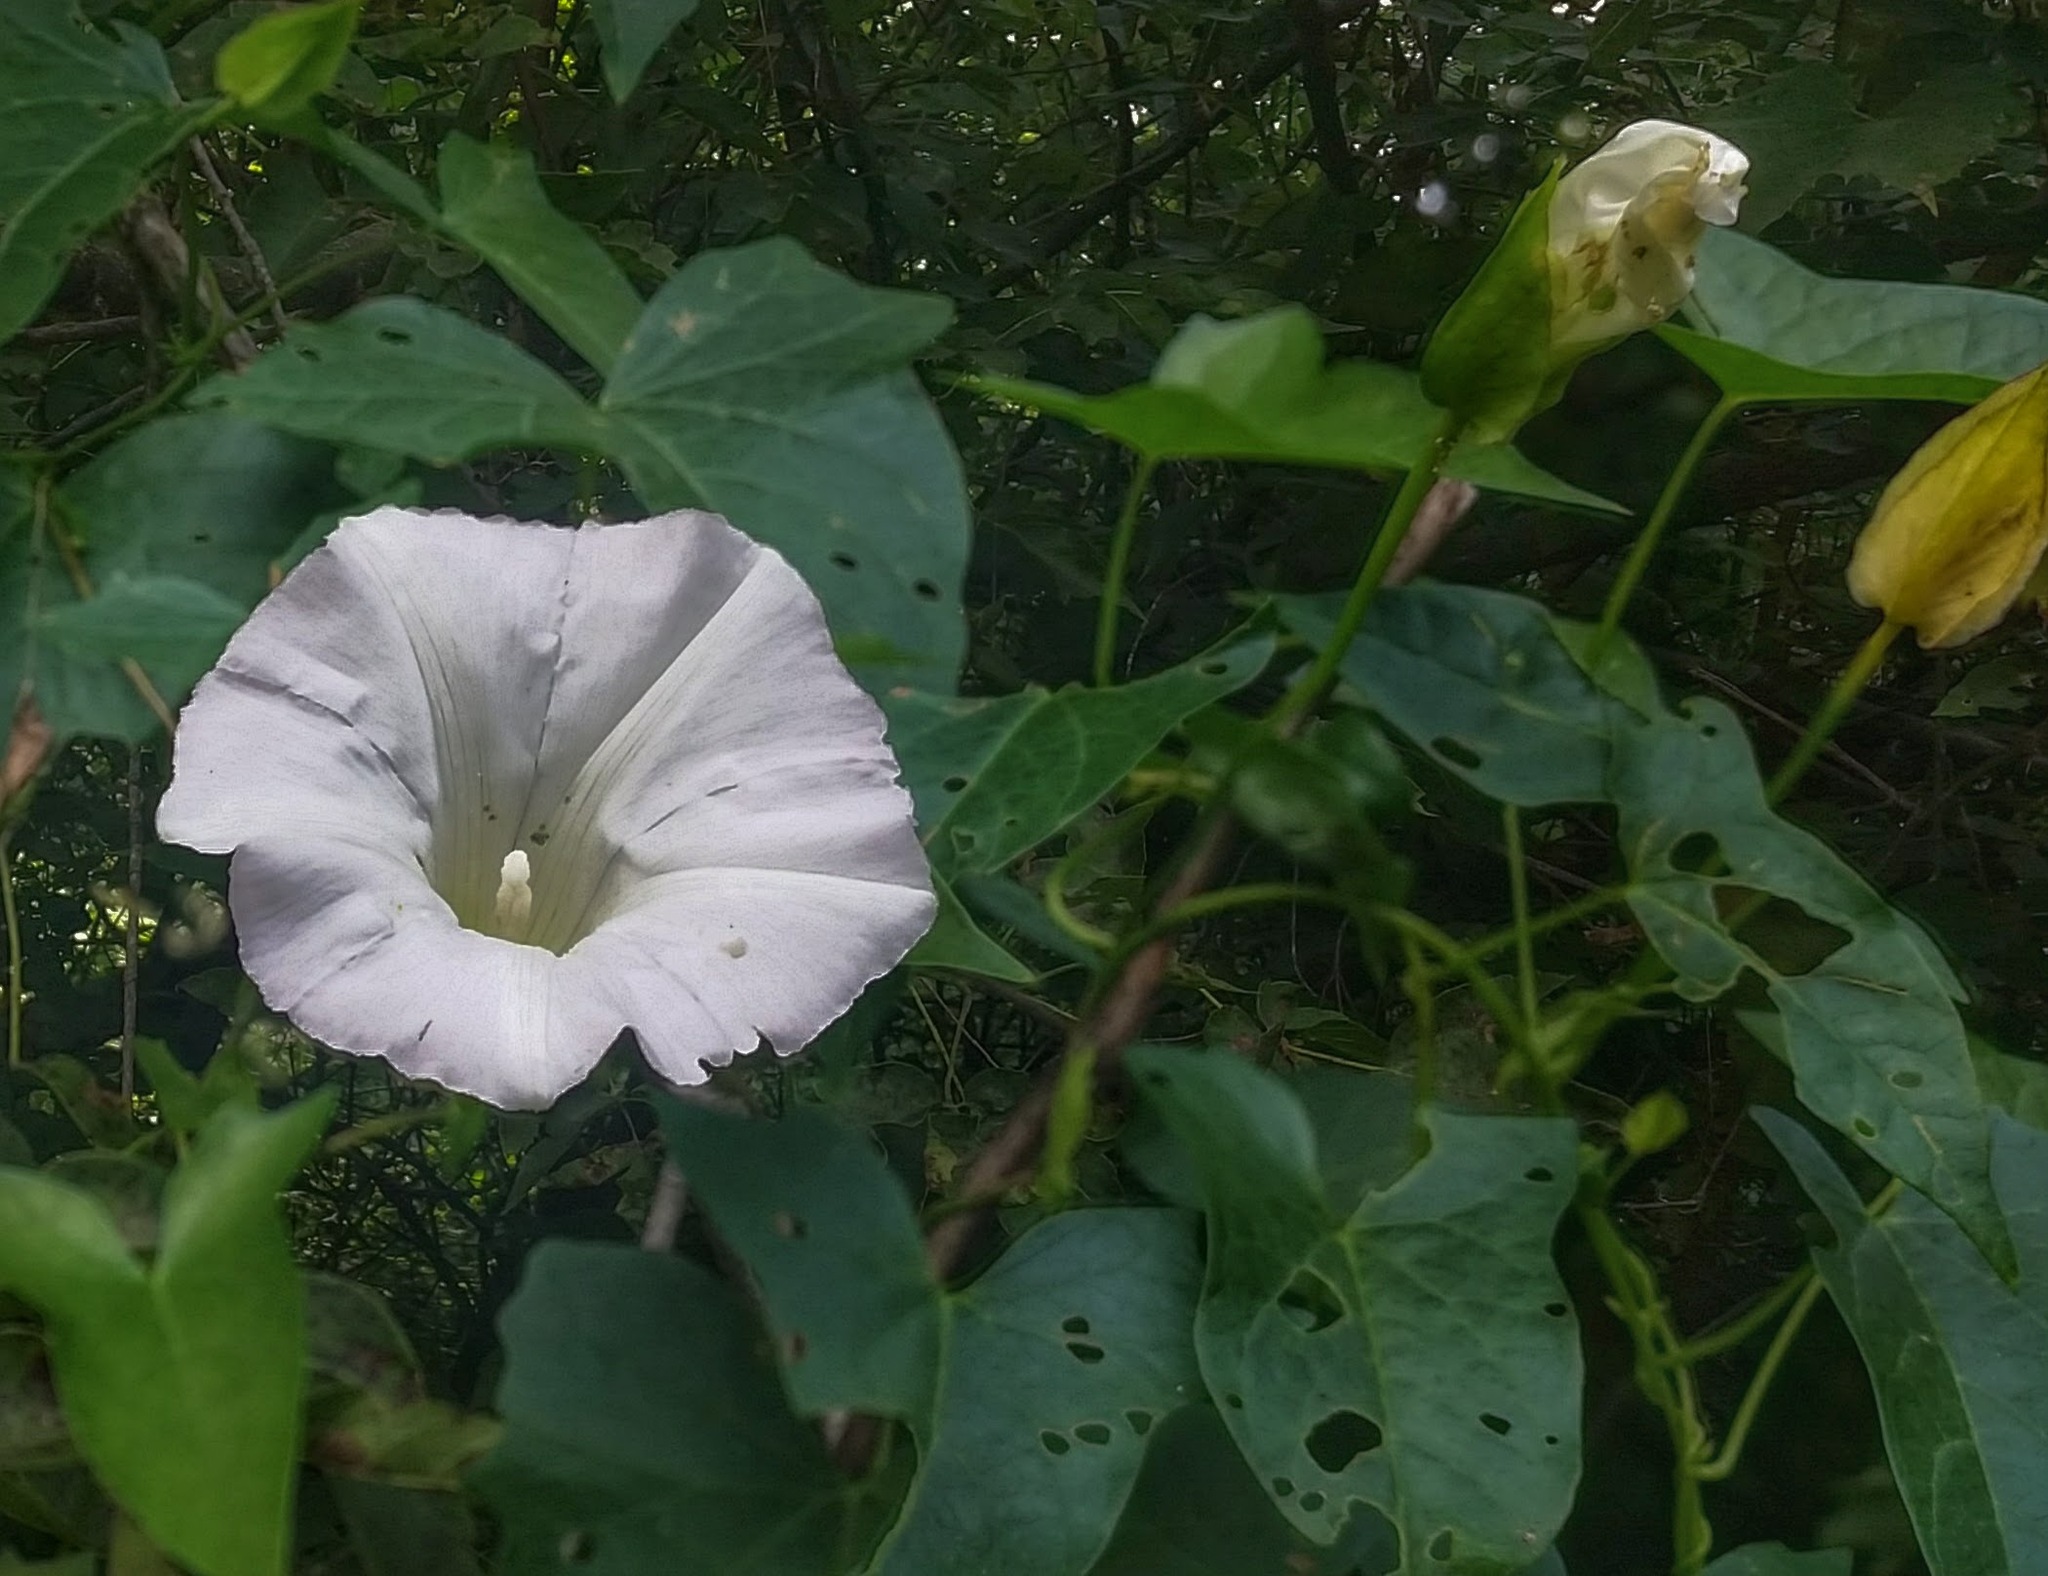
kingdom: Plantae
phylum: Tracheophyta
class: Magnoliopsida
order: Solanales
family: Convolvulaceae
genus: Calystegia
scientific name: Calystegia sepium
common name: Hedge bindweed
